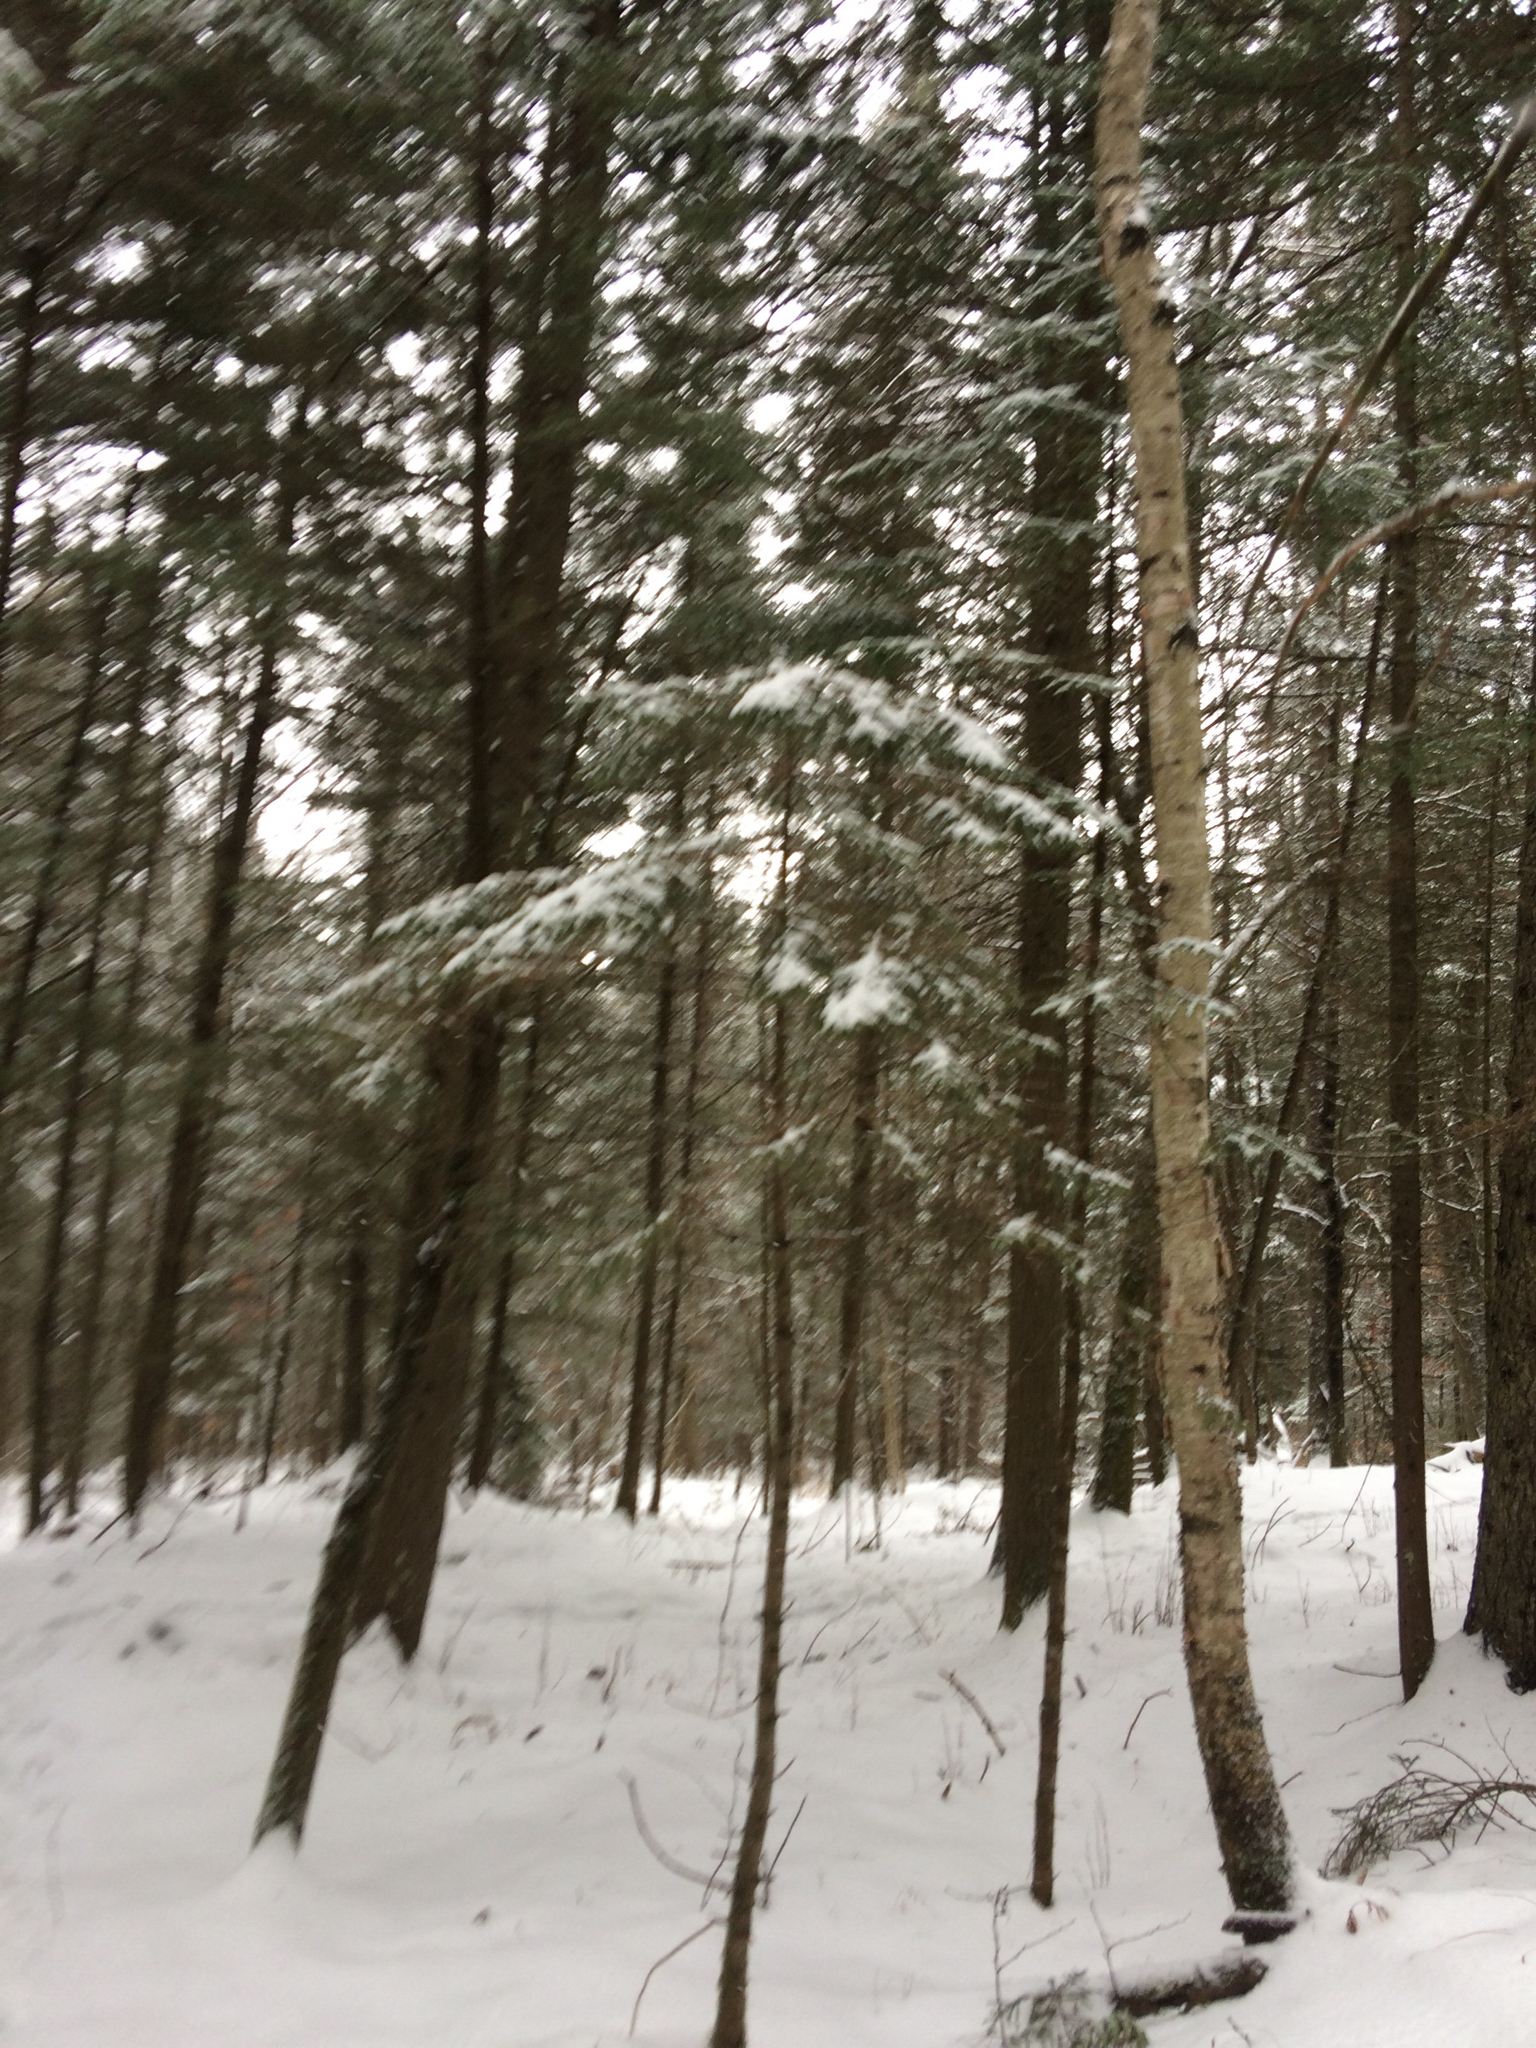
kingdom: Plantae
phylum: Tracheophyta
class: Pinopsida
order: Pinales
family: Pinaceae
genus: Tsuga
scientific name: Tsuga canadensis
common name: Eastern hemlock
